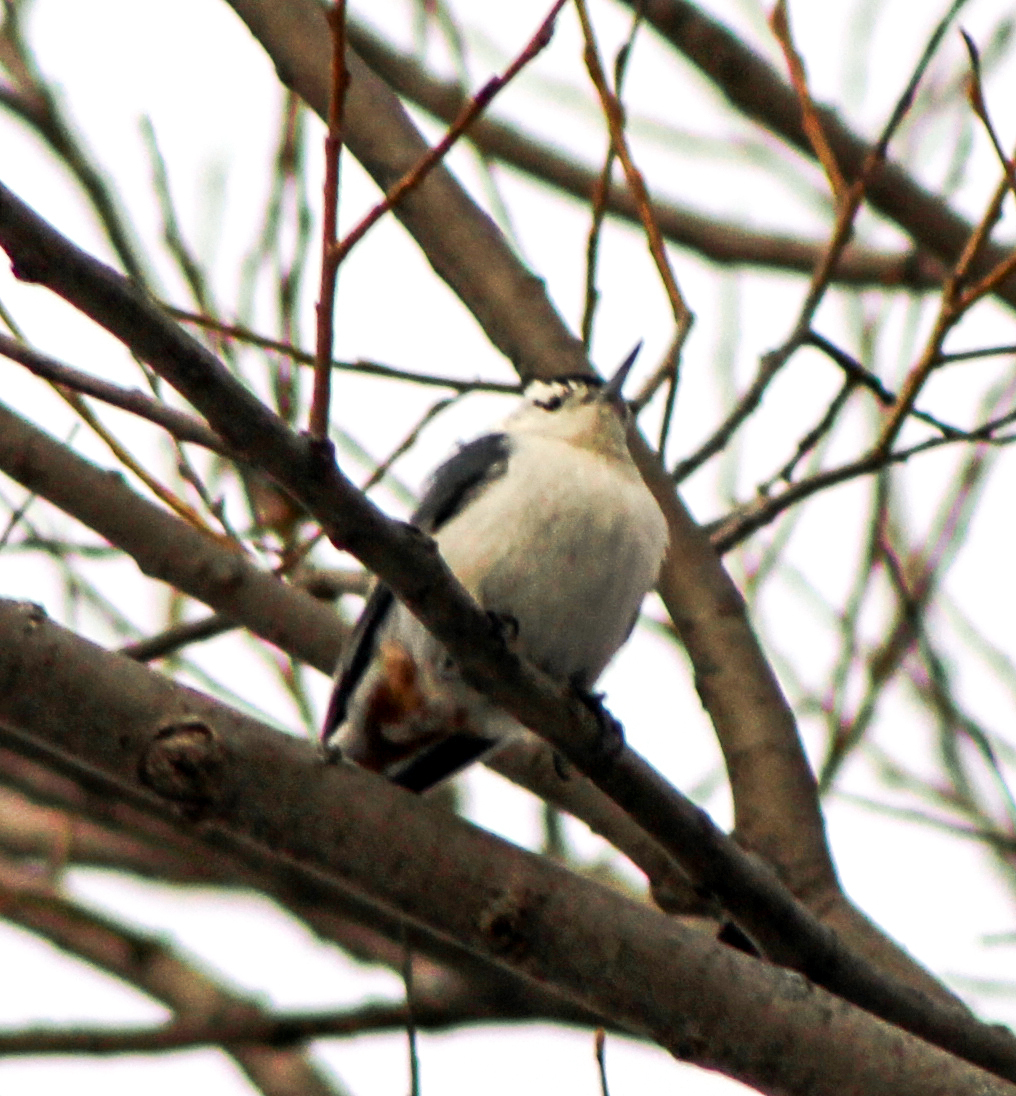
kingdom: Animalia
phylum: Chordata
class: Aves
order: Passeriformes
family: Sittidae
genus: Sitta
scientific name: Sitta carolinensis
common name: White-breasted nuthatch
